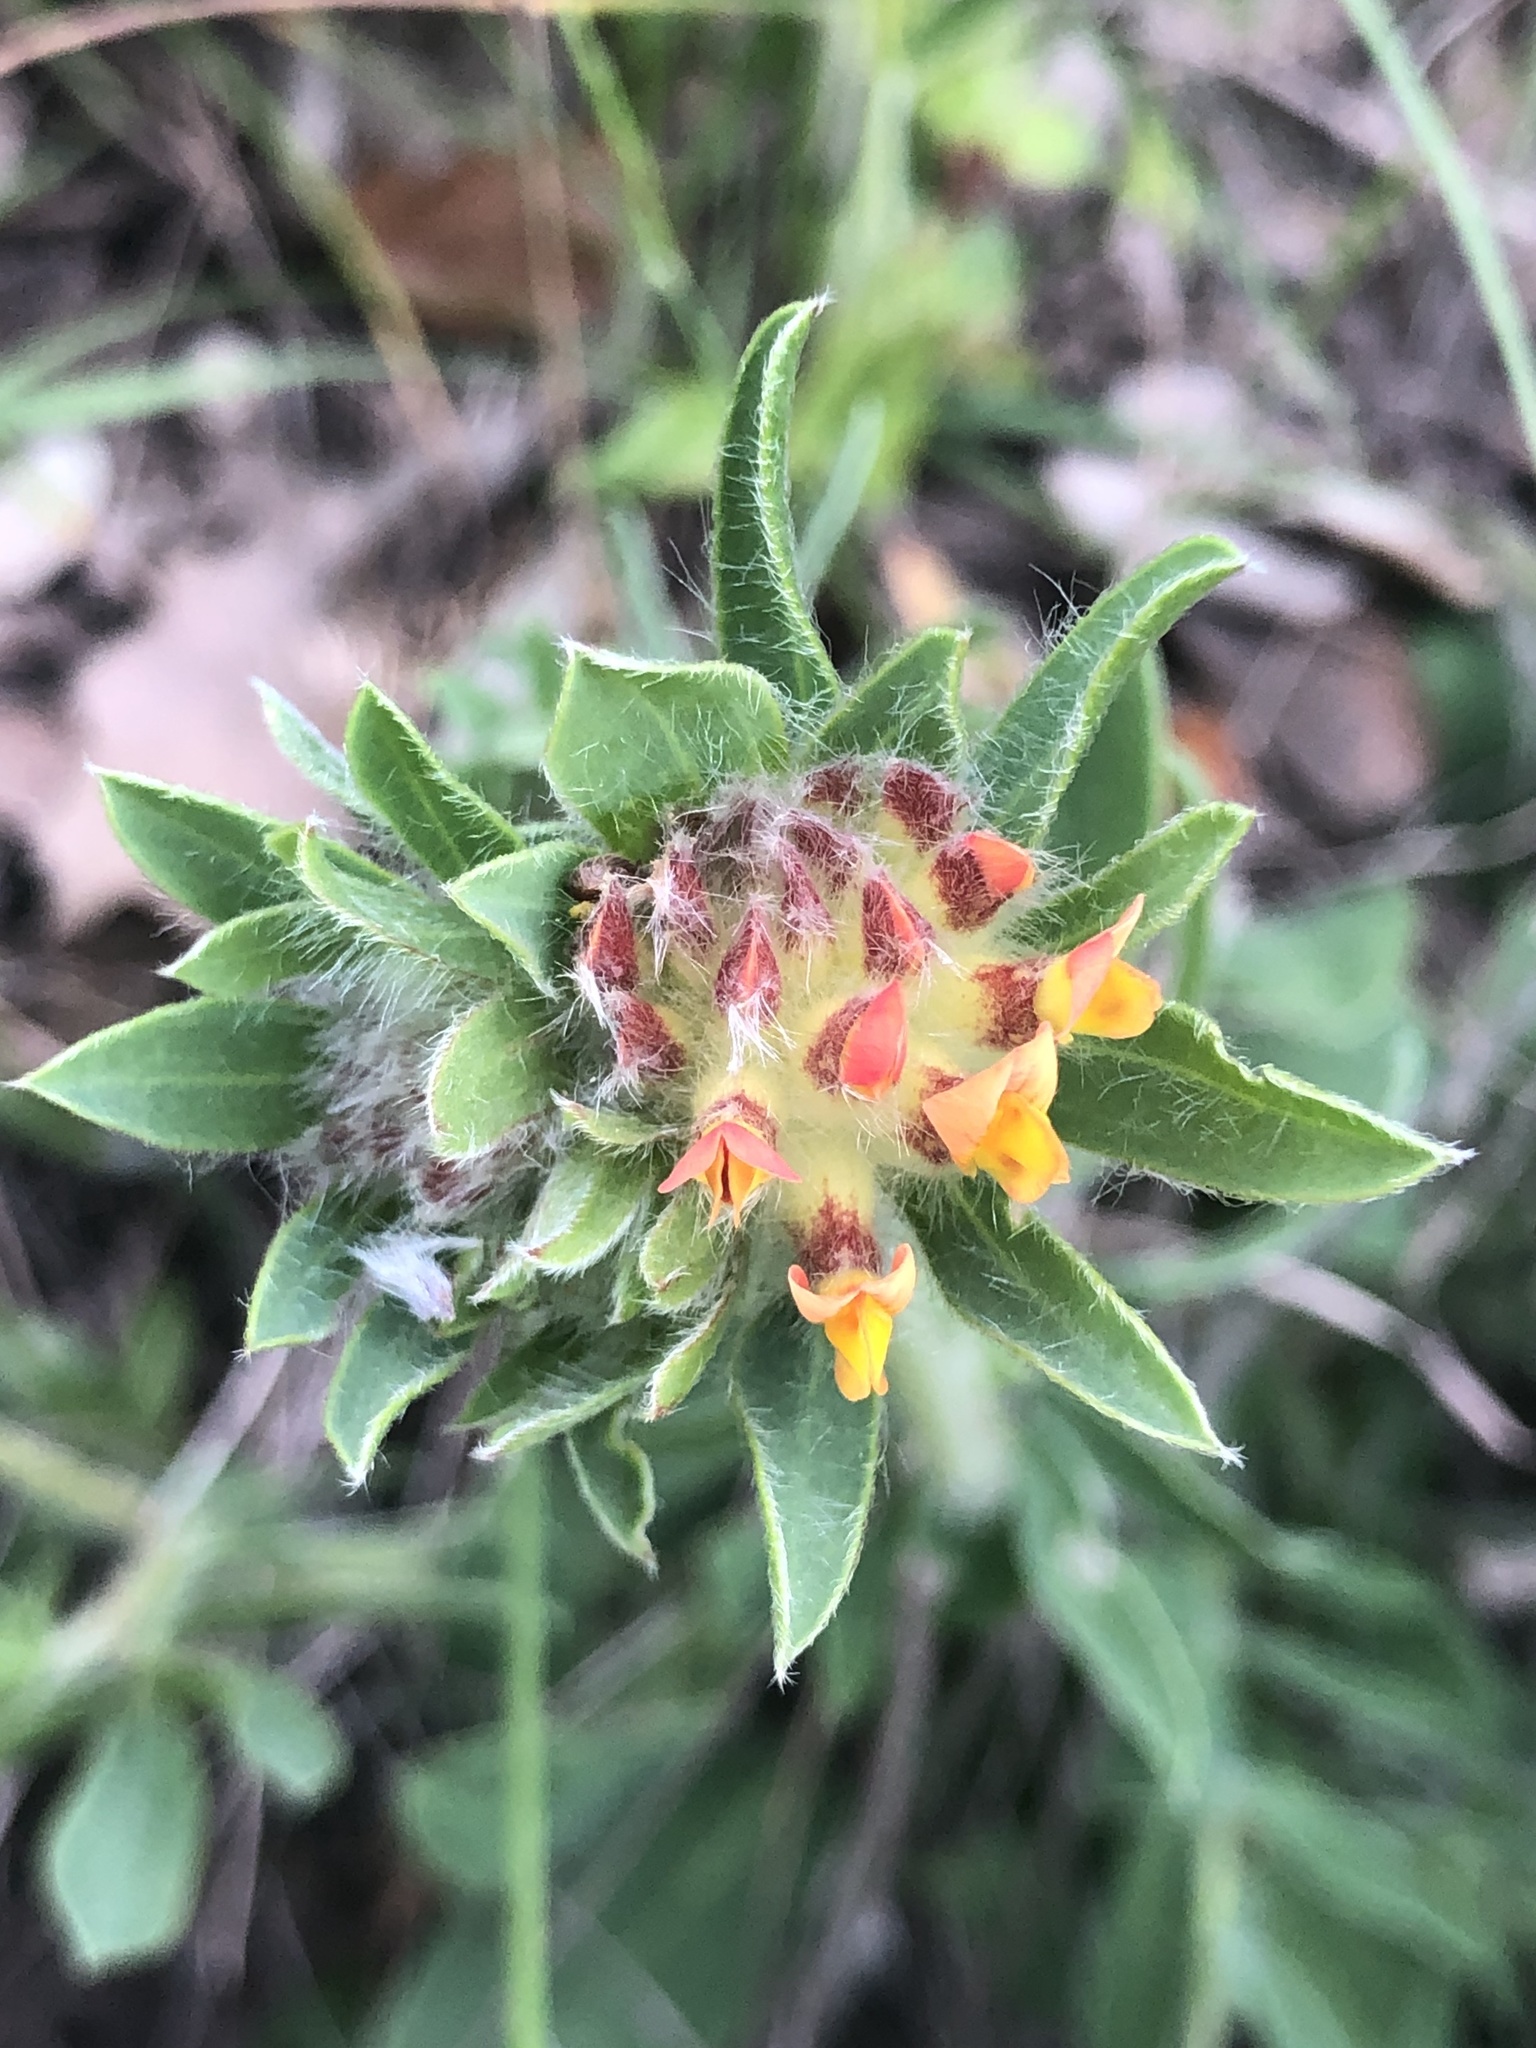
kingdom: Plantae
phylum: Tracheophyta
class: Magnoliopsida
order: Fabales
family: Fabaceae
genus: Anthyllis
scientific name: Anthyllis vulneraria
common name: Kidney vetch
